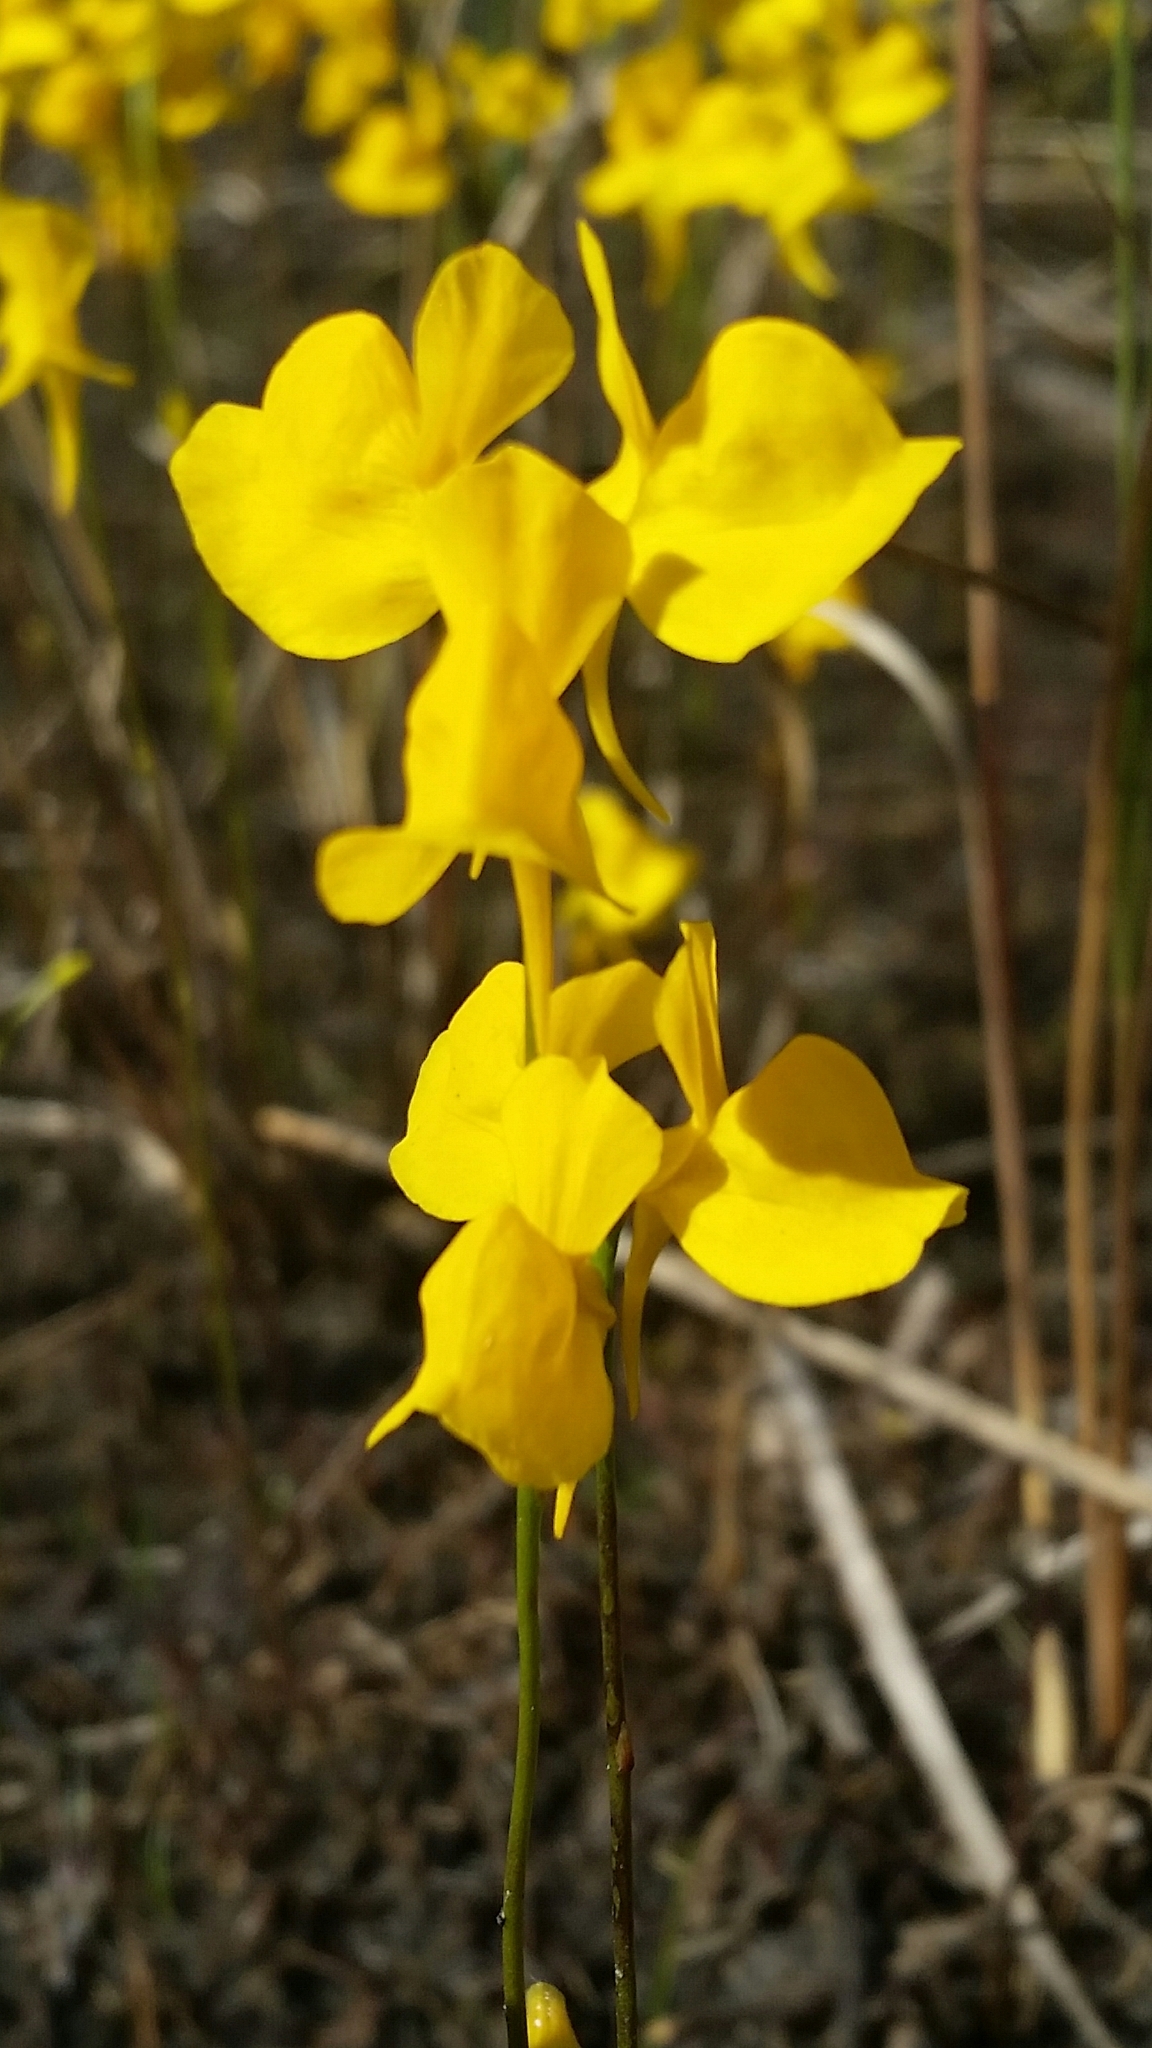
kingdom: Plantae
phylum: Tracheophyta
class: Magnoliopsida
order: Lamiales
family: Lentibulariaceae
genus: Utricularia
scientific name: Utricularia cornuta
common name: Horned bladderwort
